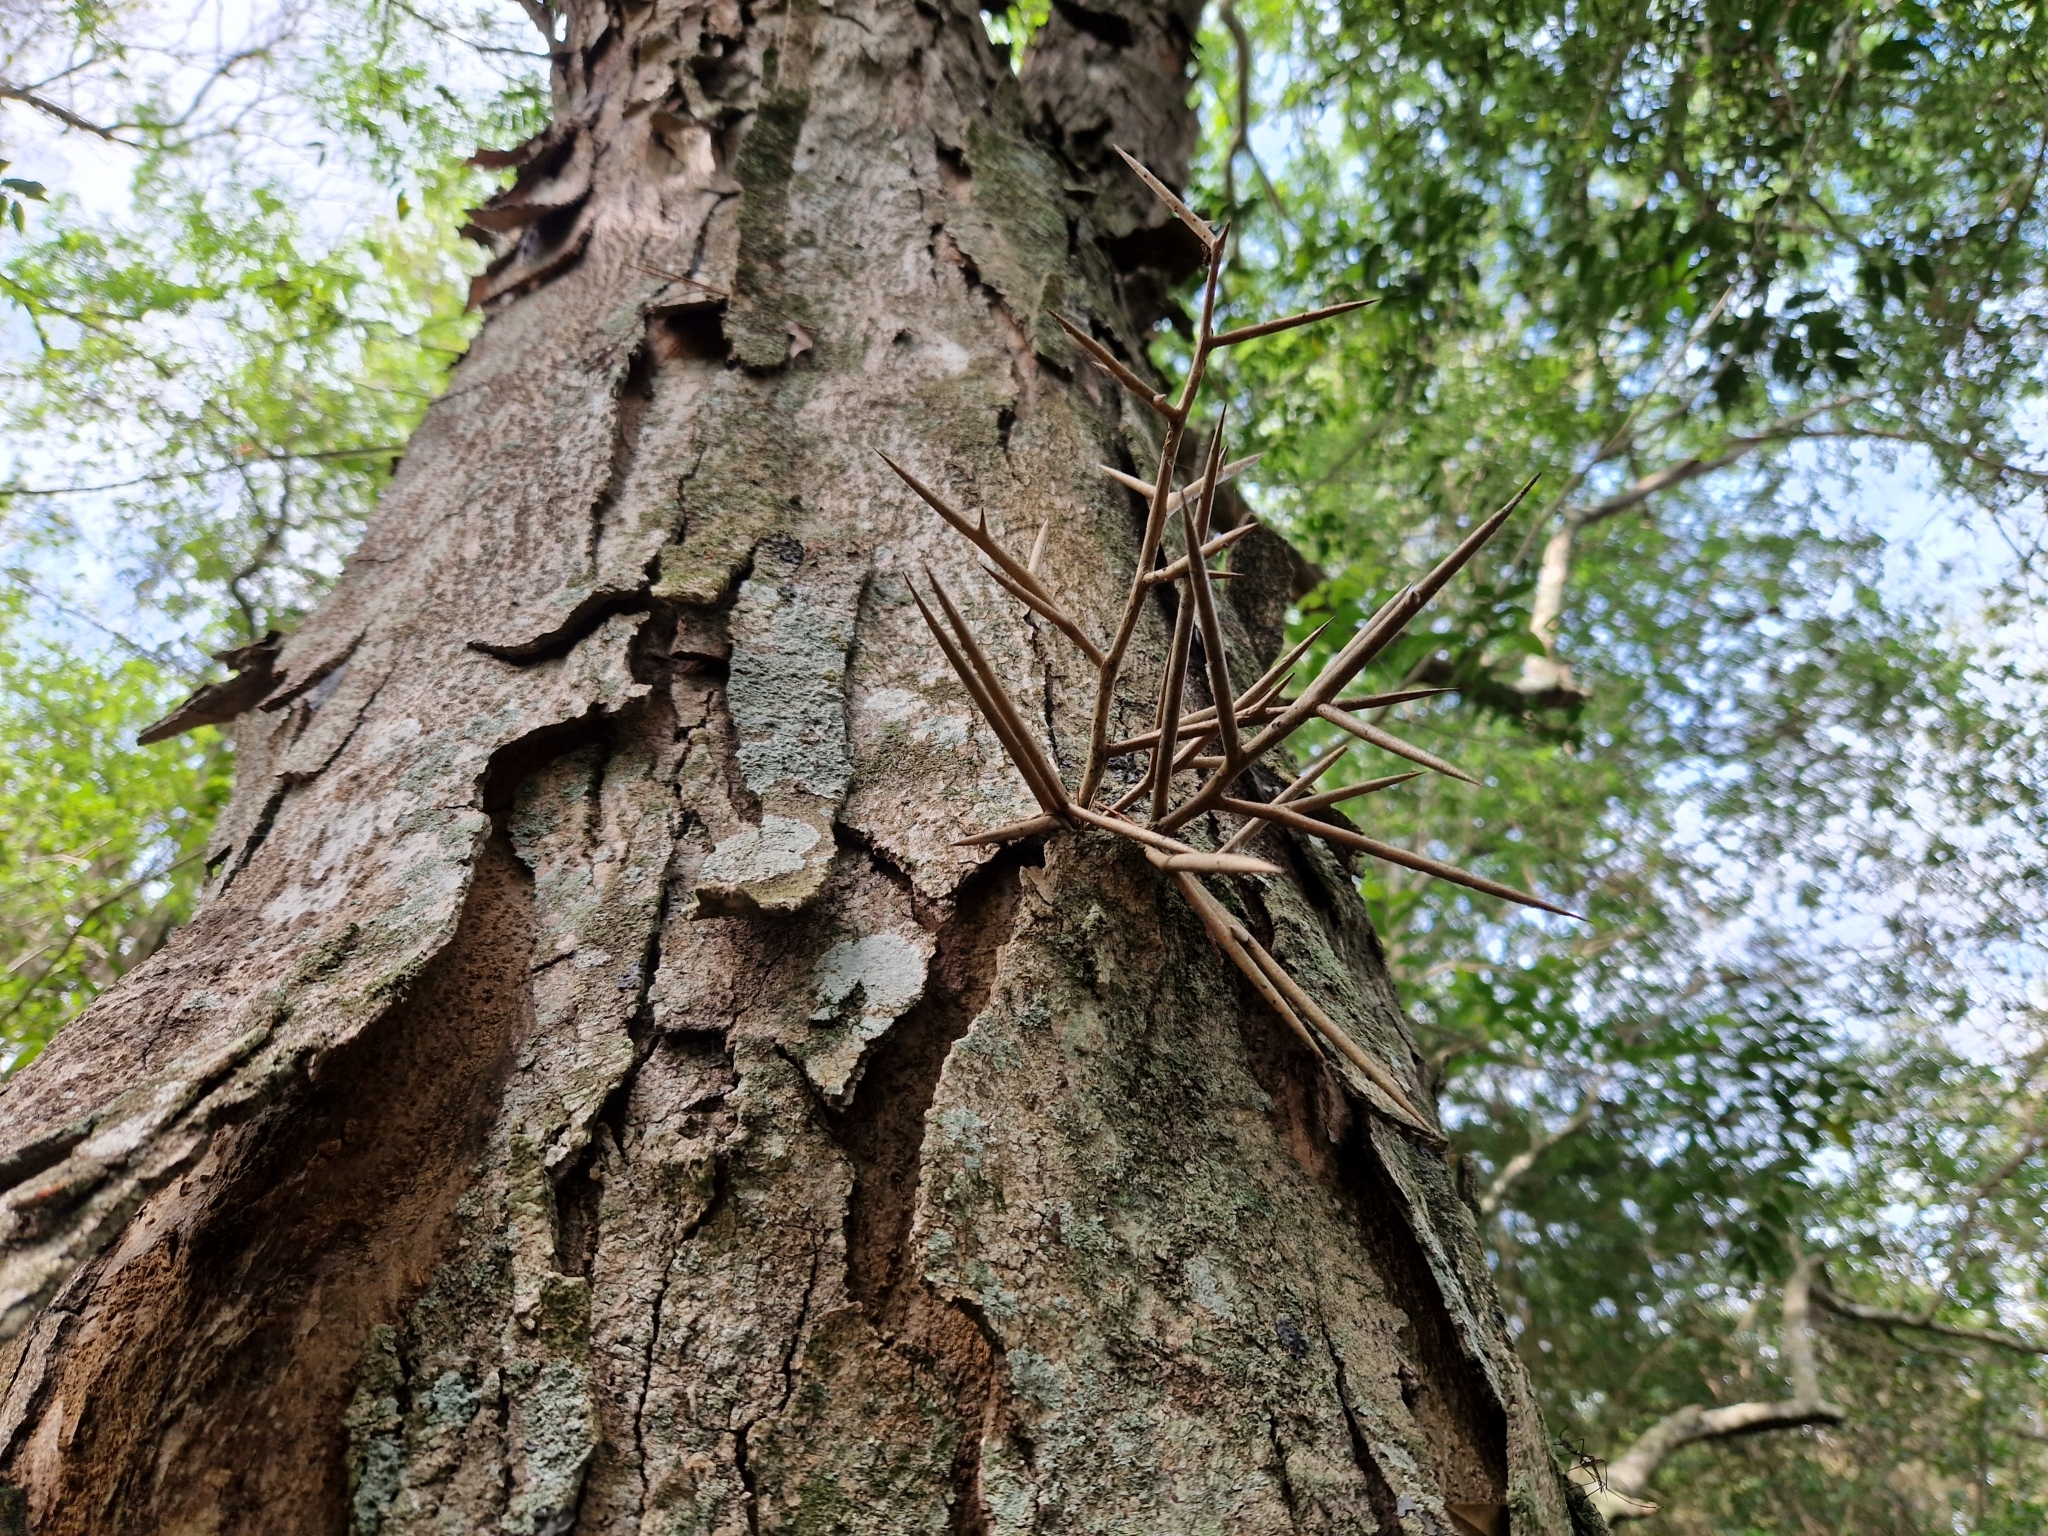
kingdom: Plantae
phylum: Tracheophyta
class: Magnoliopsida
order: Fabales
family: Fabaceae
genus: Gleditsia
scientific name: Gleditsia amorphoides
